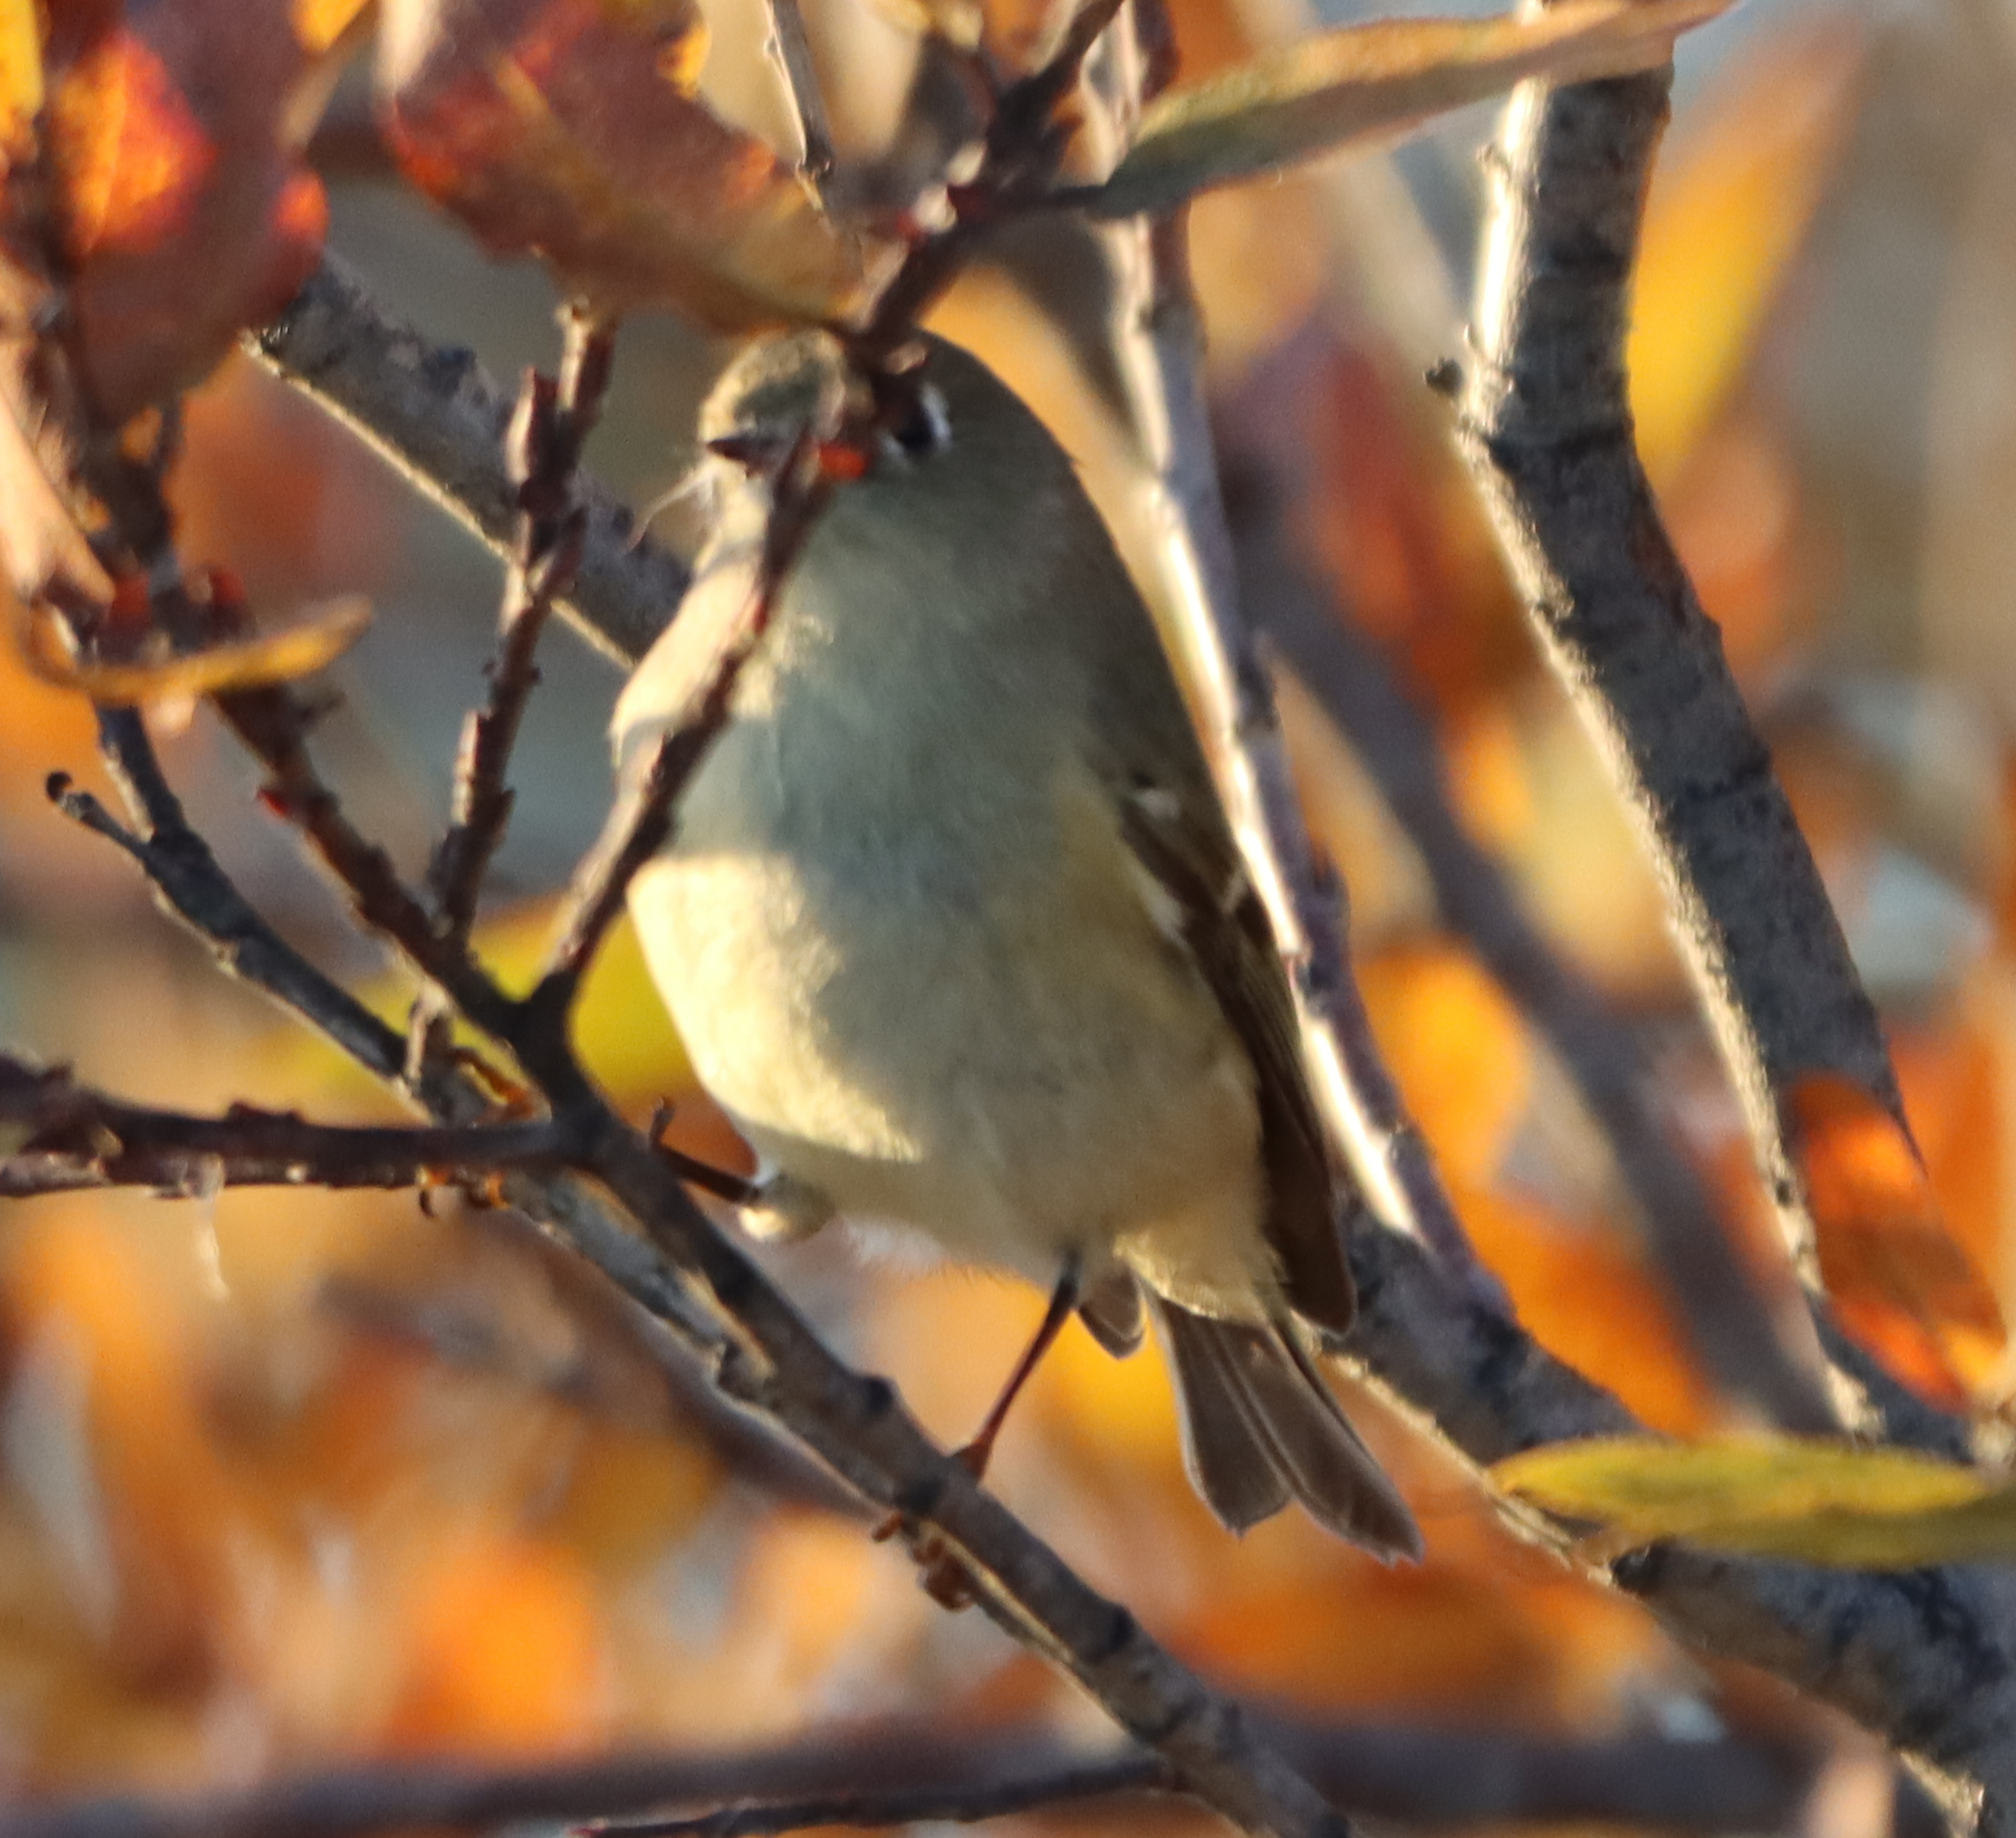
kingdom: Animalia
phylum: Chordata
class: Aves
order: Passeriformes
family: Regulidae
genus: Regulus
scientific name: Regulus calendula
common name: Ruby-crowned kinglet
